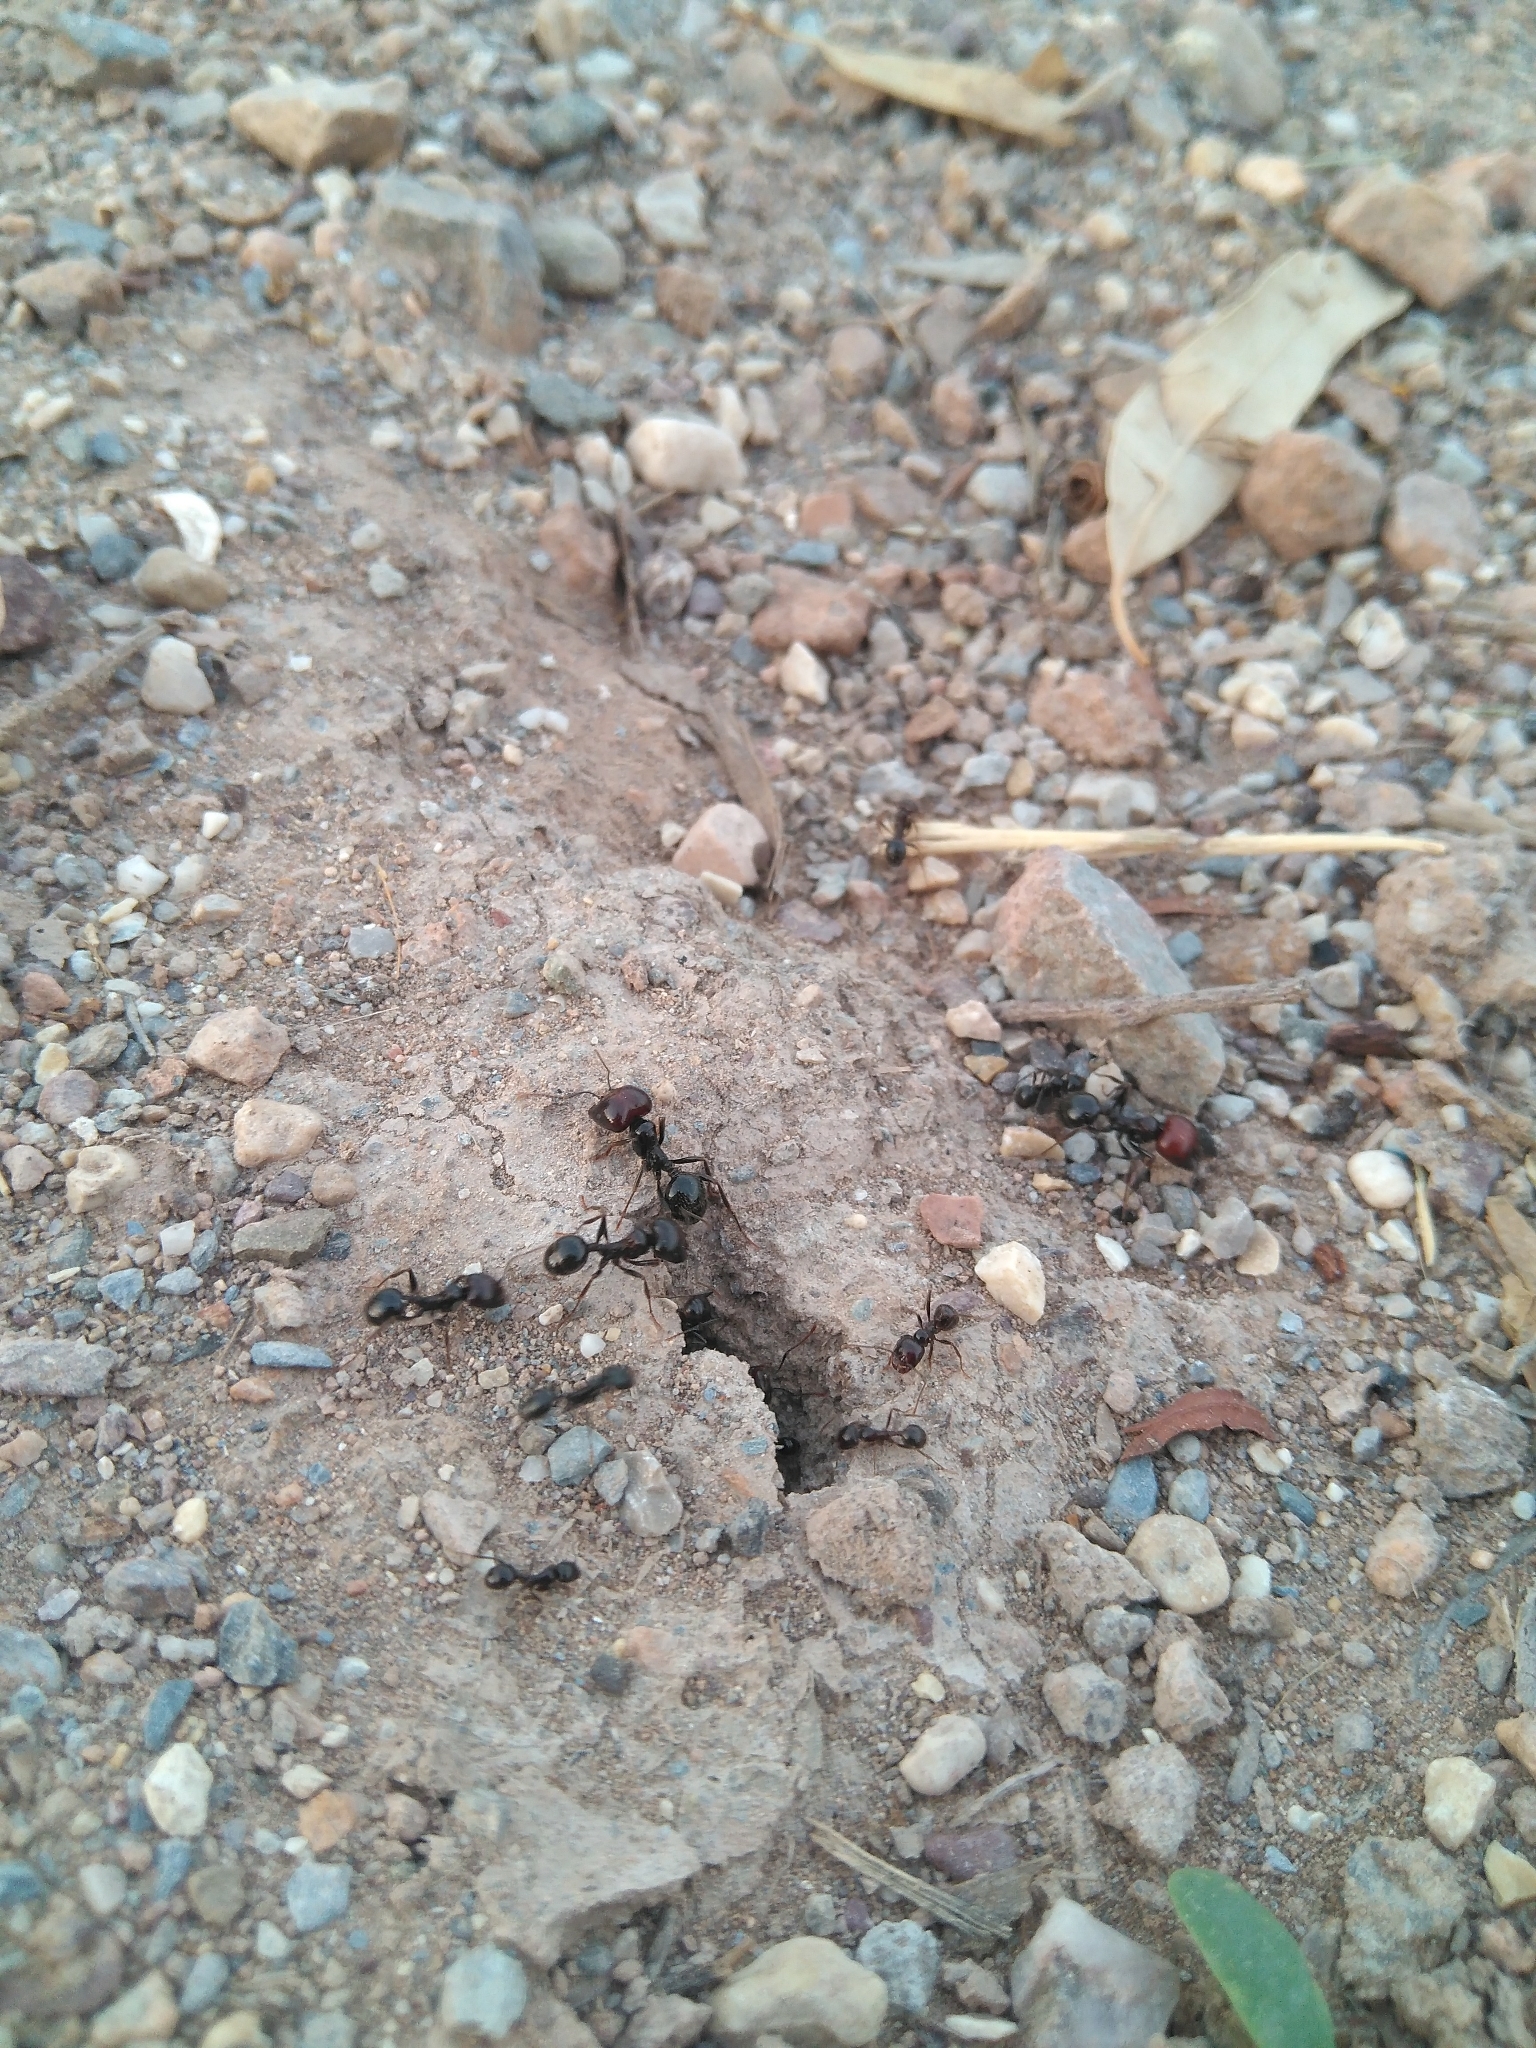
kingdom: Animalia
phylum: Arthropoda
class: Insecta
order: Hymenoptera
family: Formicidae
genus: Messor
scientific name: Messor barbarus
